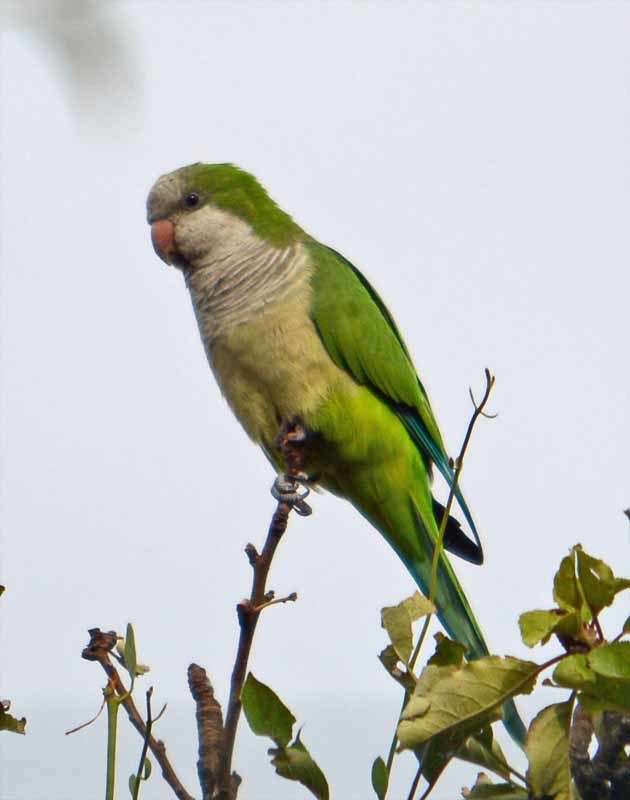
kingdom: Animalia
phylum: Chordata
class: Aves
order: Psittaciformes
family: Psittacidae
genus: Myiopsitta
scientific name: Myiopsitta monachus
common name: Monk parakeet
